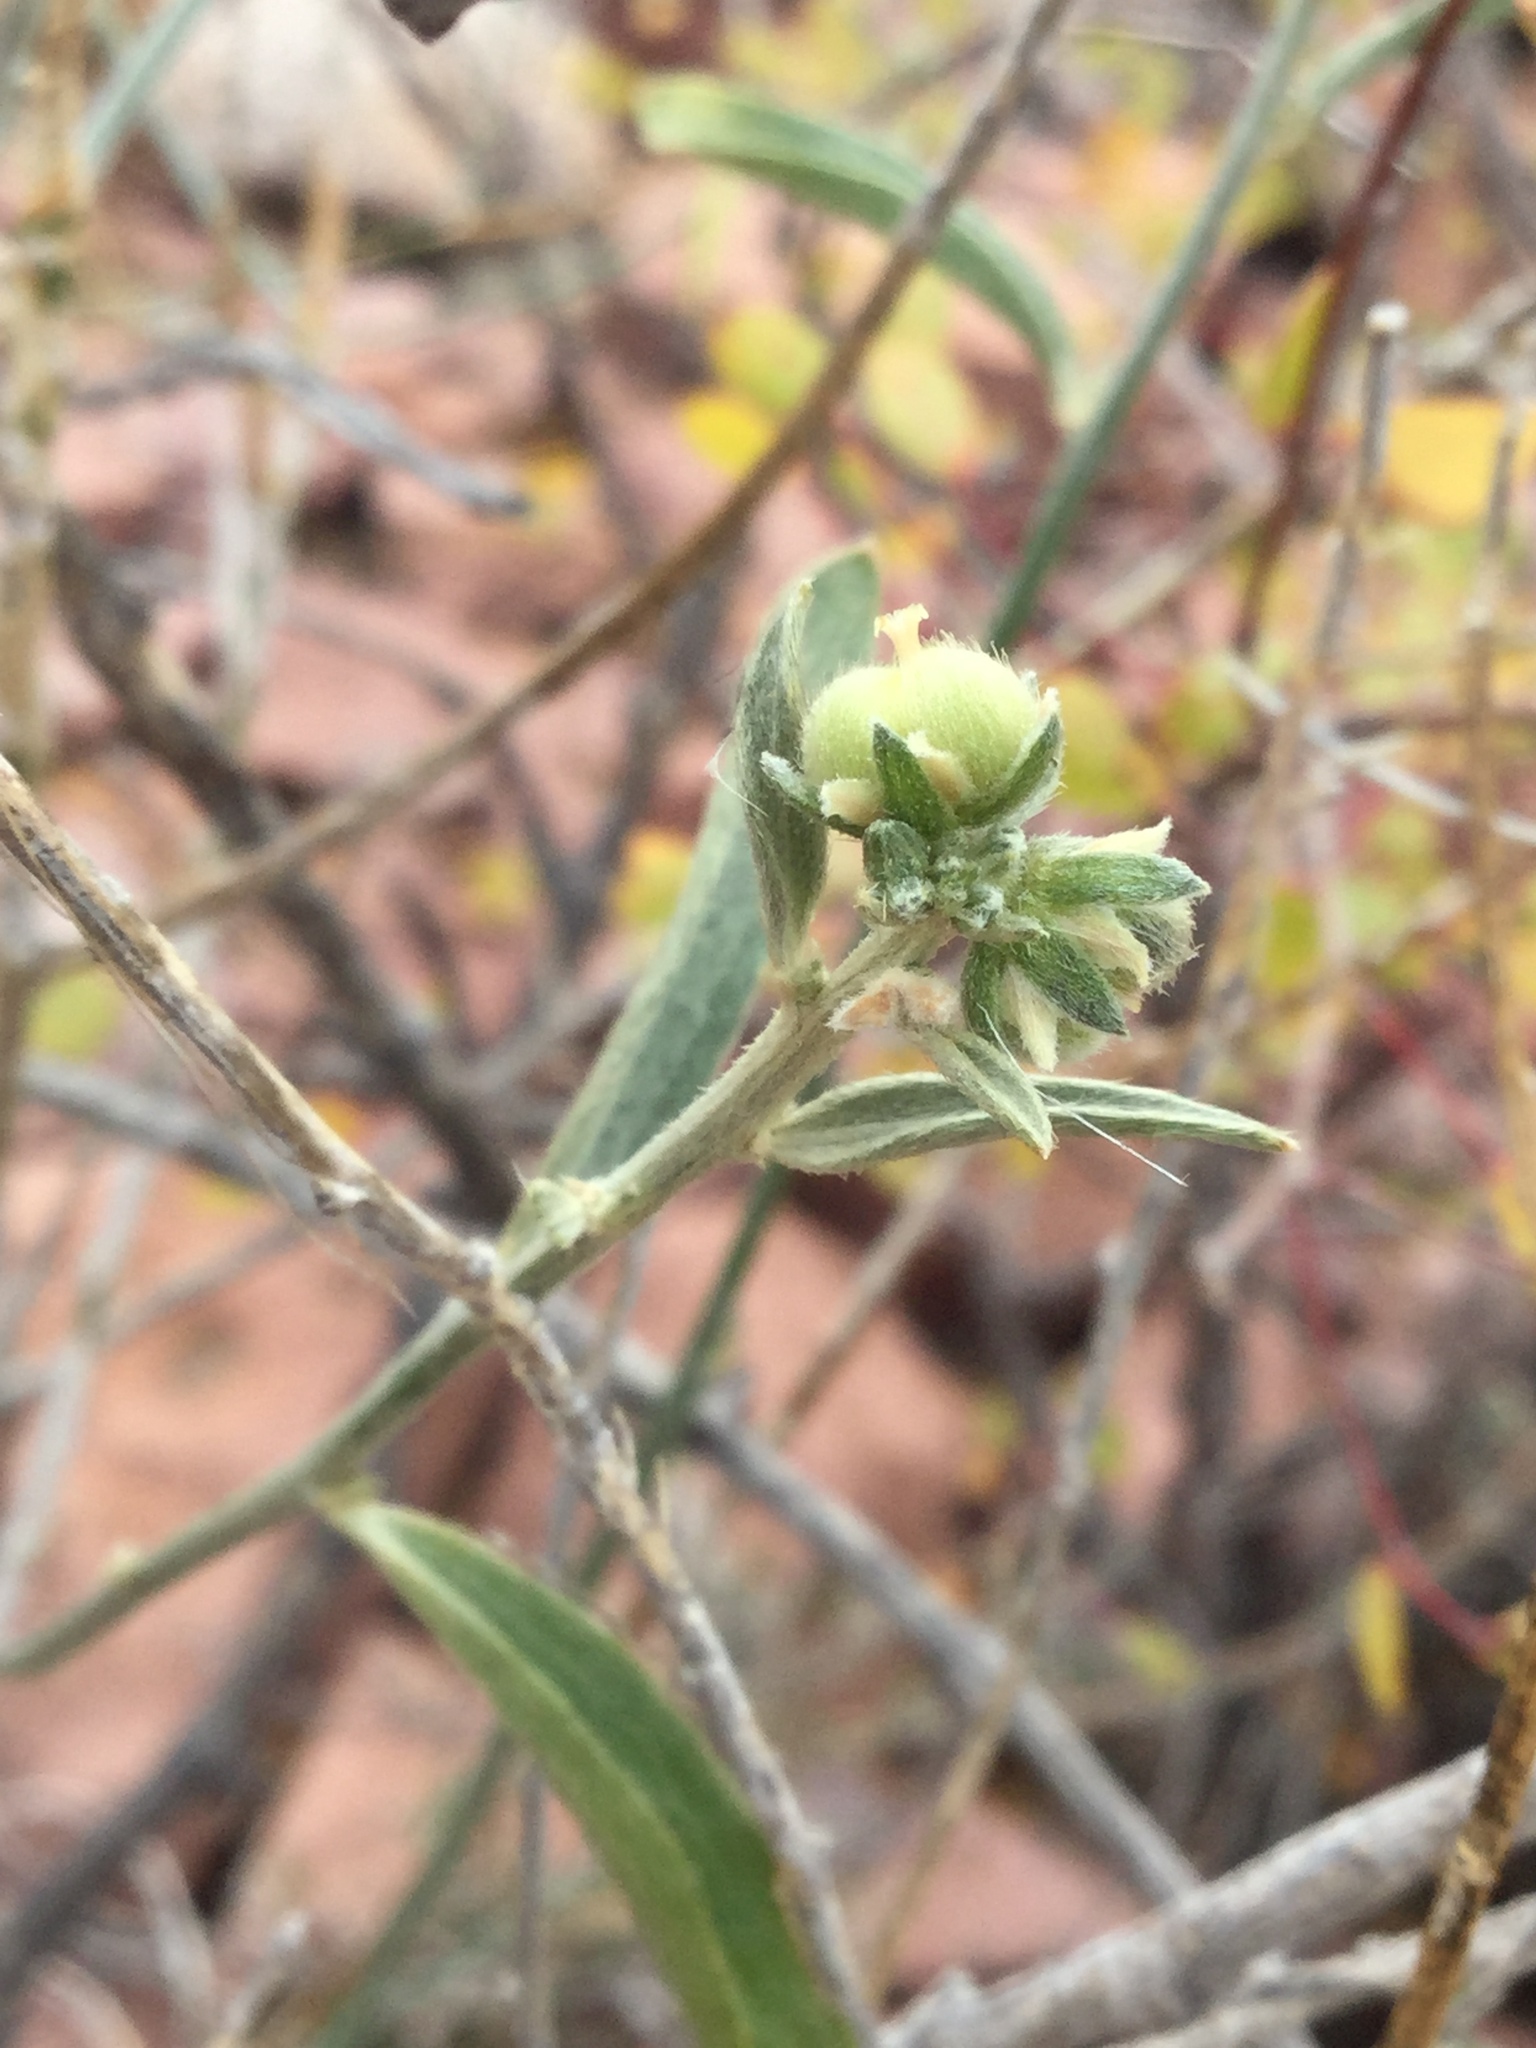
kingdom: Plantae
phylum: Tracheophyta
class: Magnoliopsida
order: Malpighiales
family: Euphorbiaceae
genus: Ditaxis
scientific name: Ditaxis lanceolata
